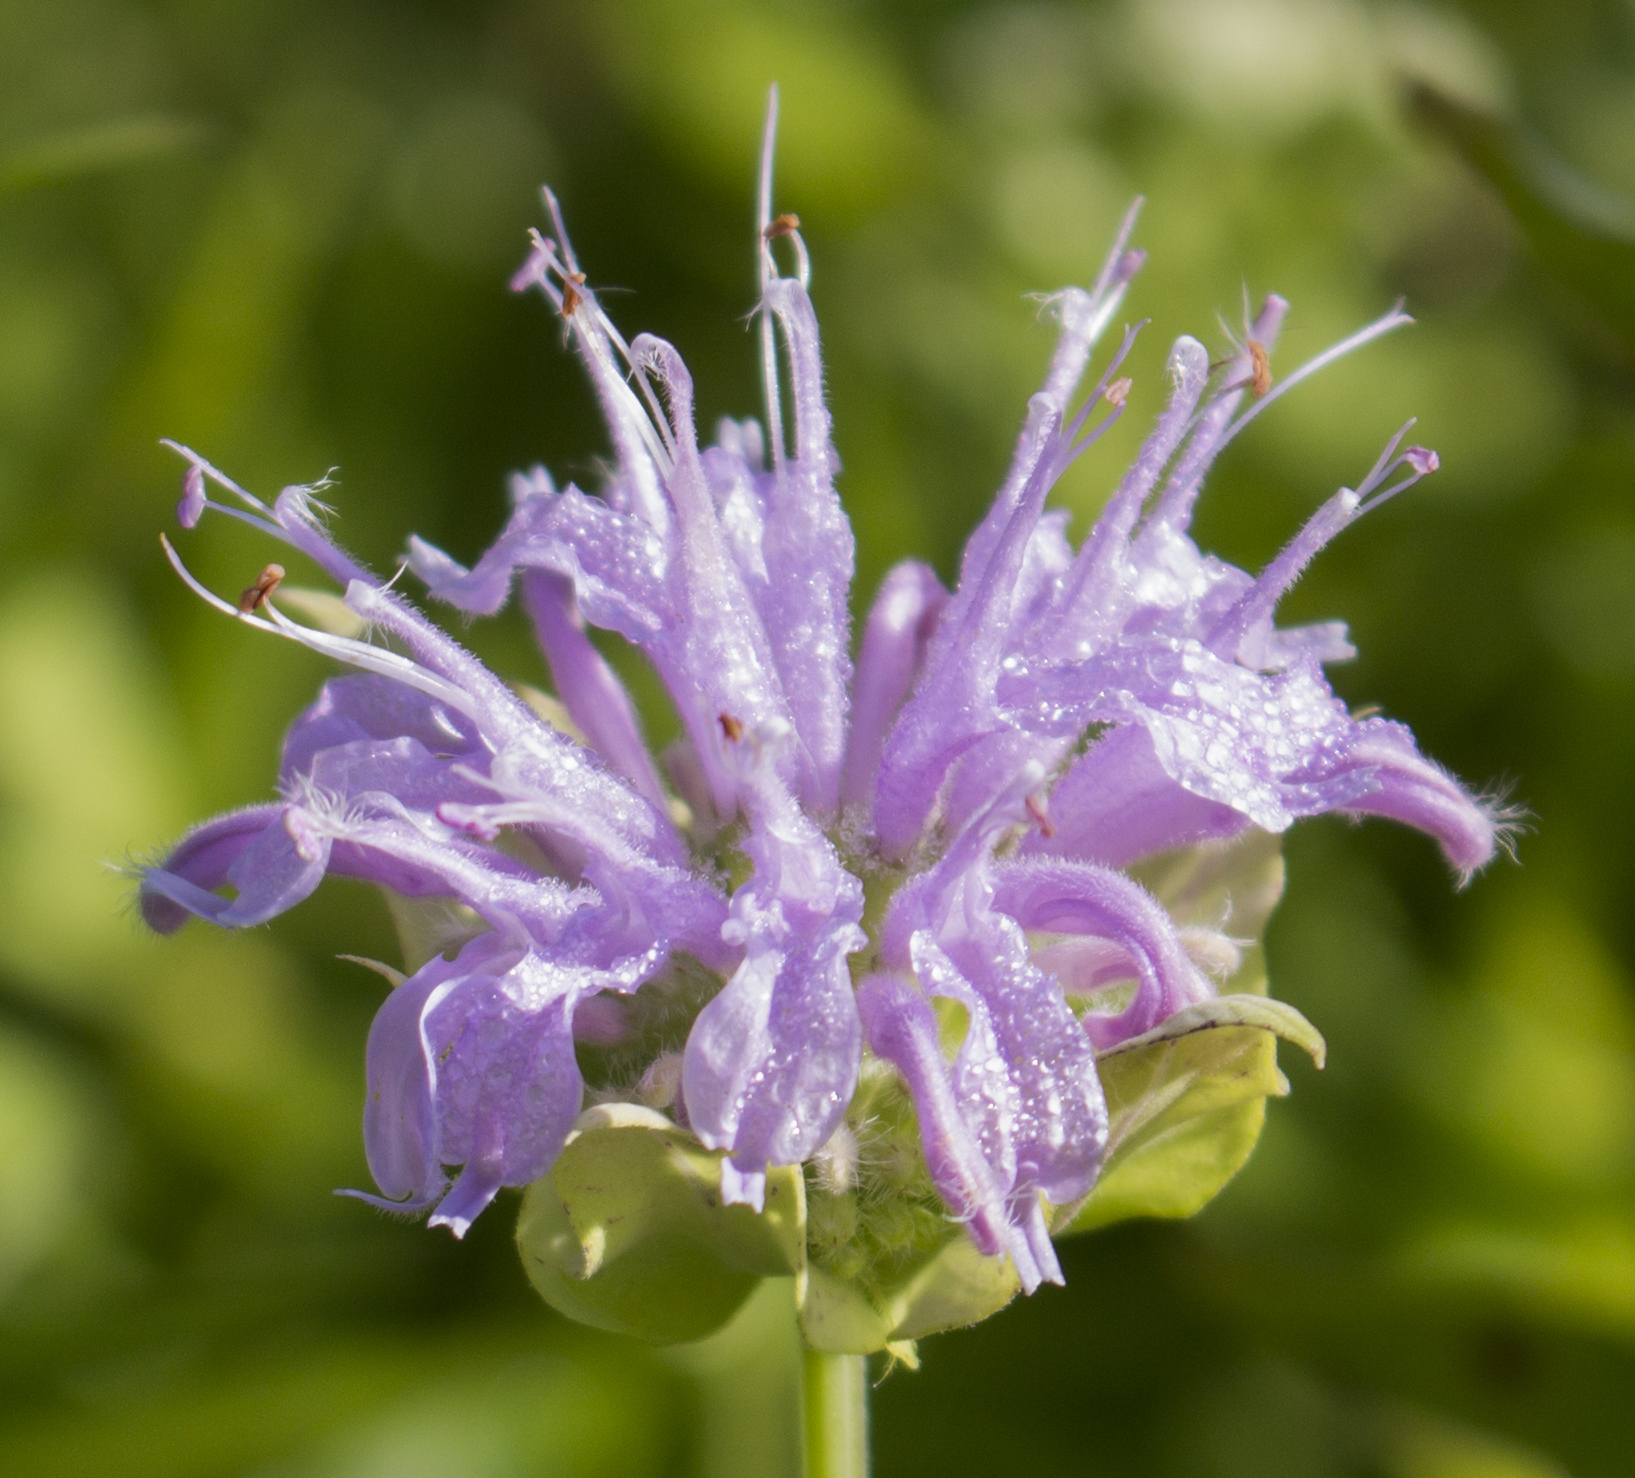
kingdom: Plantae
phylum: Tracheophyta
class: Magnoliopsida
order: Lamiales
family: Lamiaceae
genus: Monarda
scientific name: Monarda fistulosa
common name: Purple beebalm
